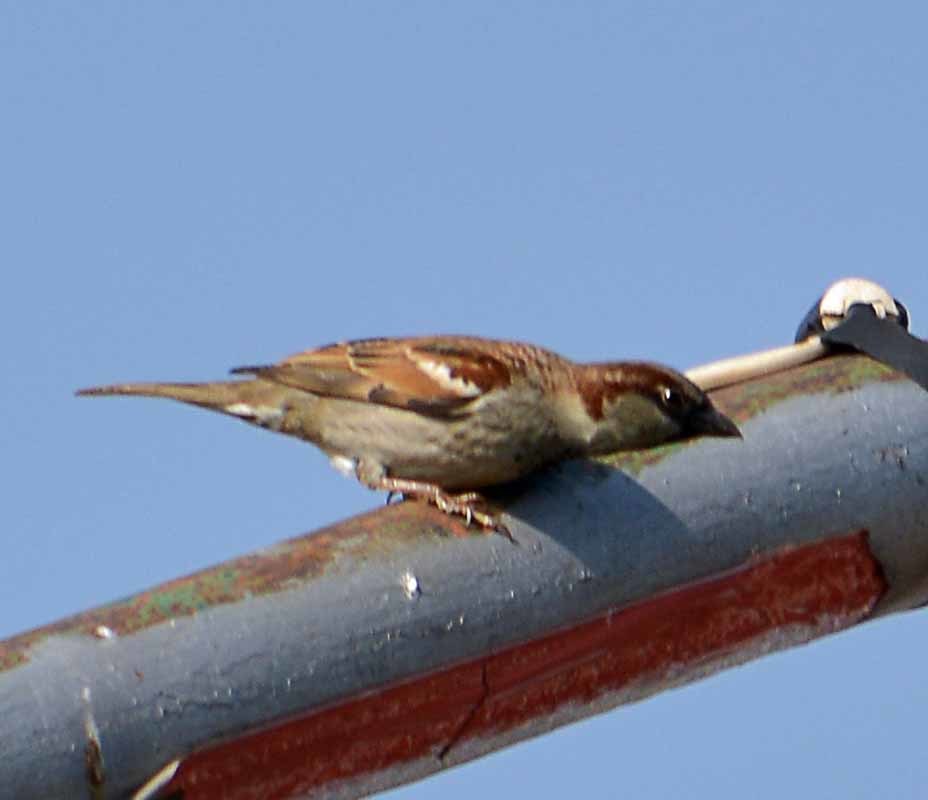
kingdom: Animalia
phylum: Chordata
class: Aves
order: Passeriformes
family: Passeridae
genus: Passer
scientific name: Passer domesticus
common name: House sparrow
